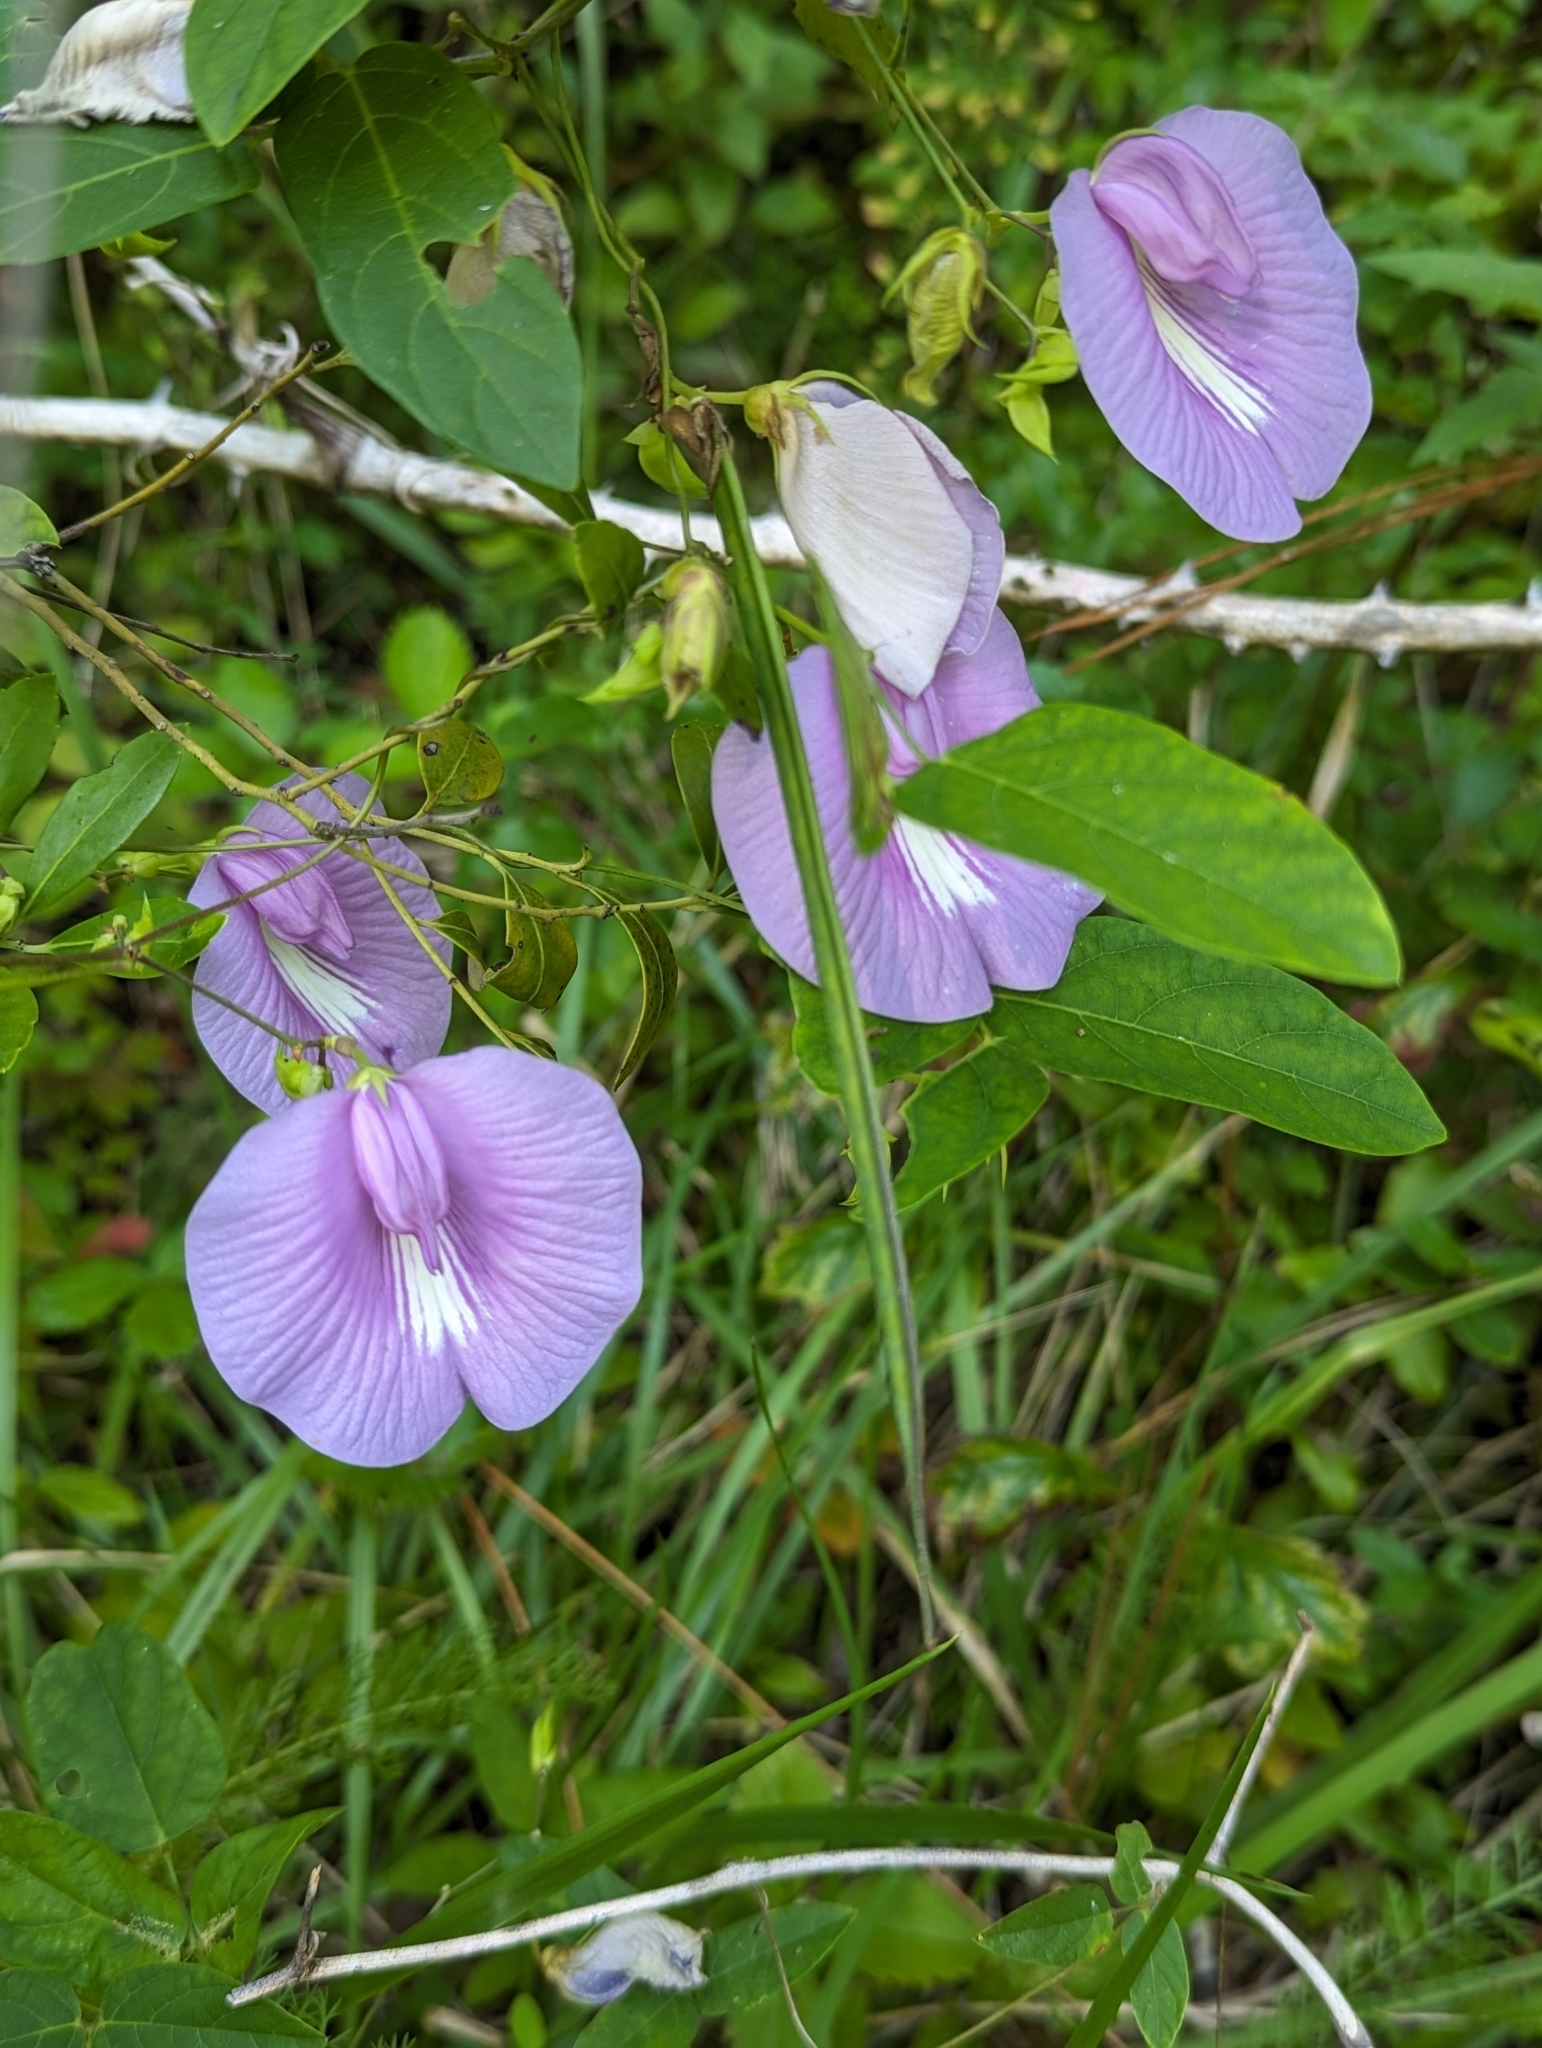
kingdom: Plantae
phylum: Tracheophyta
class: Magnoliopsida
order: Fabales
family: Fabaceae
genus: Centrosema
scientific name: Centrosema virginianum
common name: Butterfly-pea
